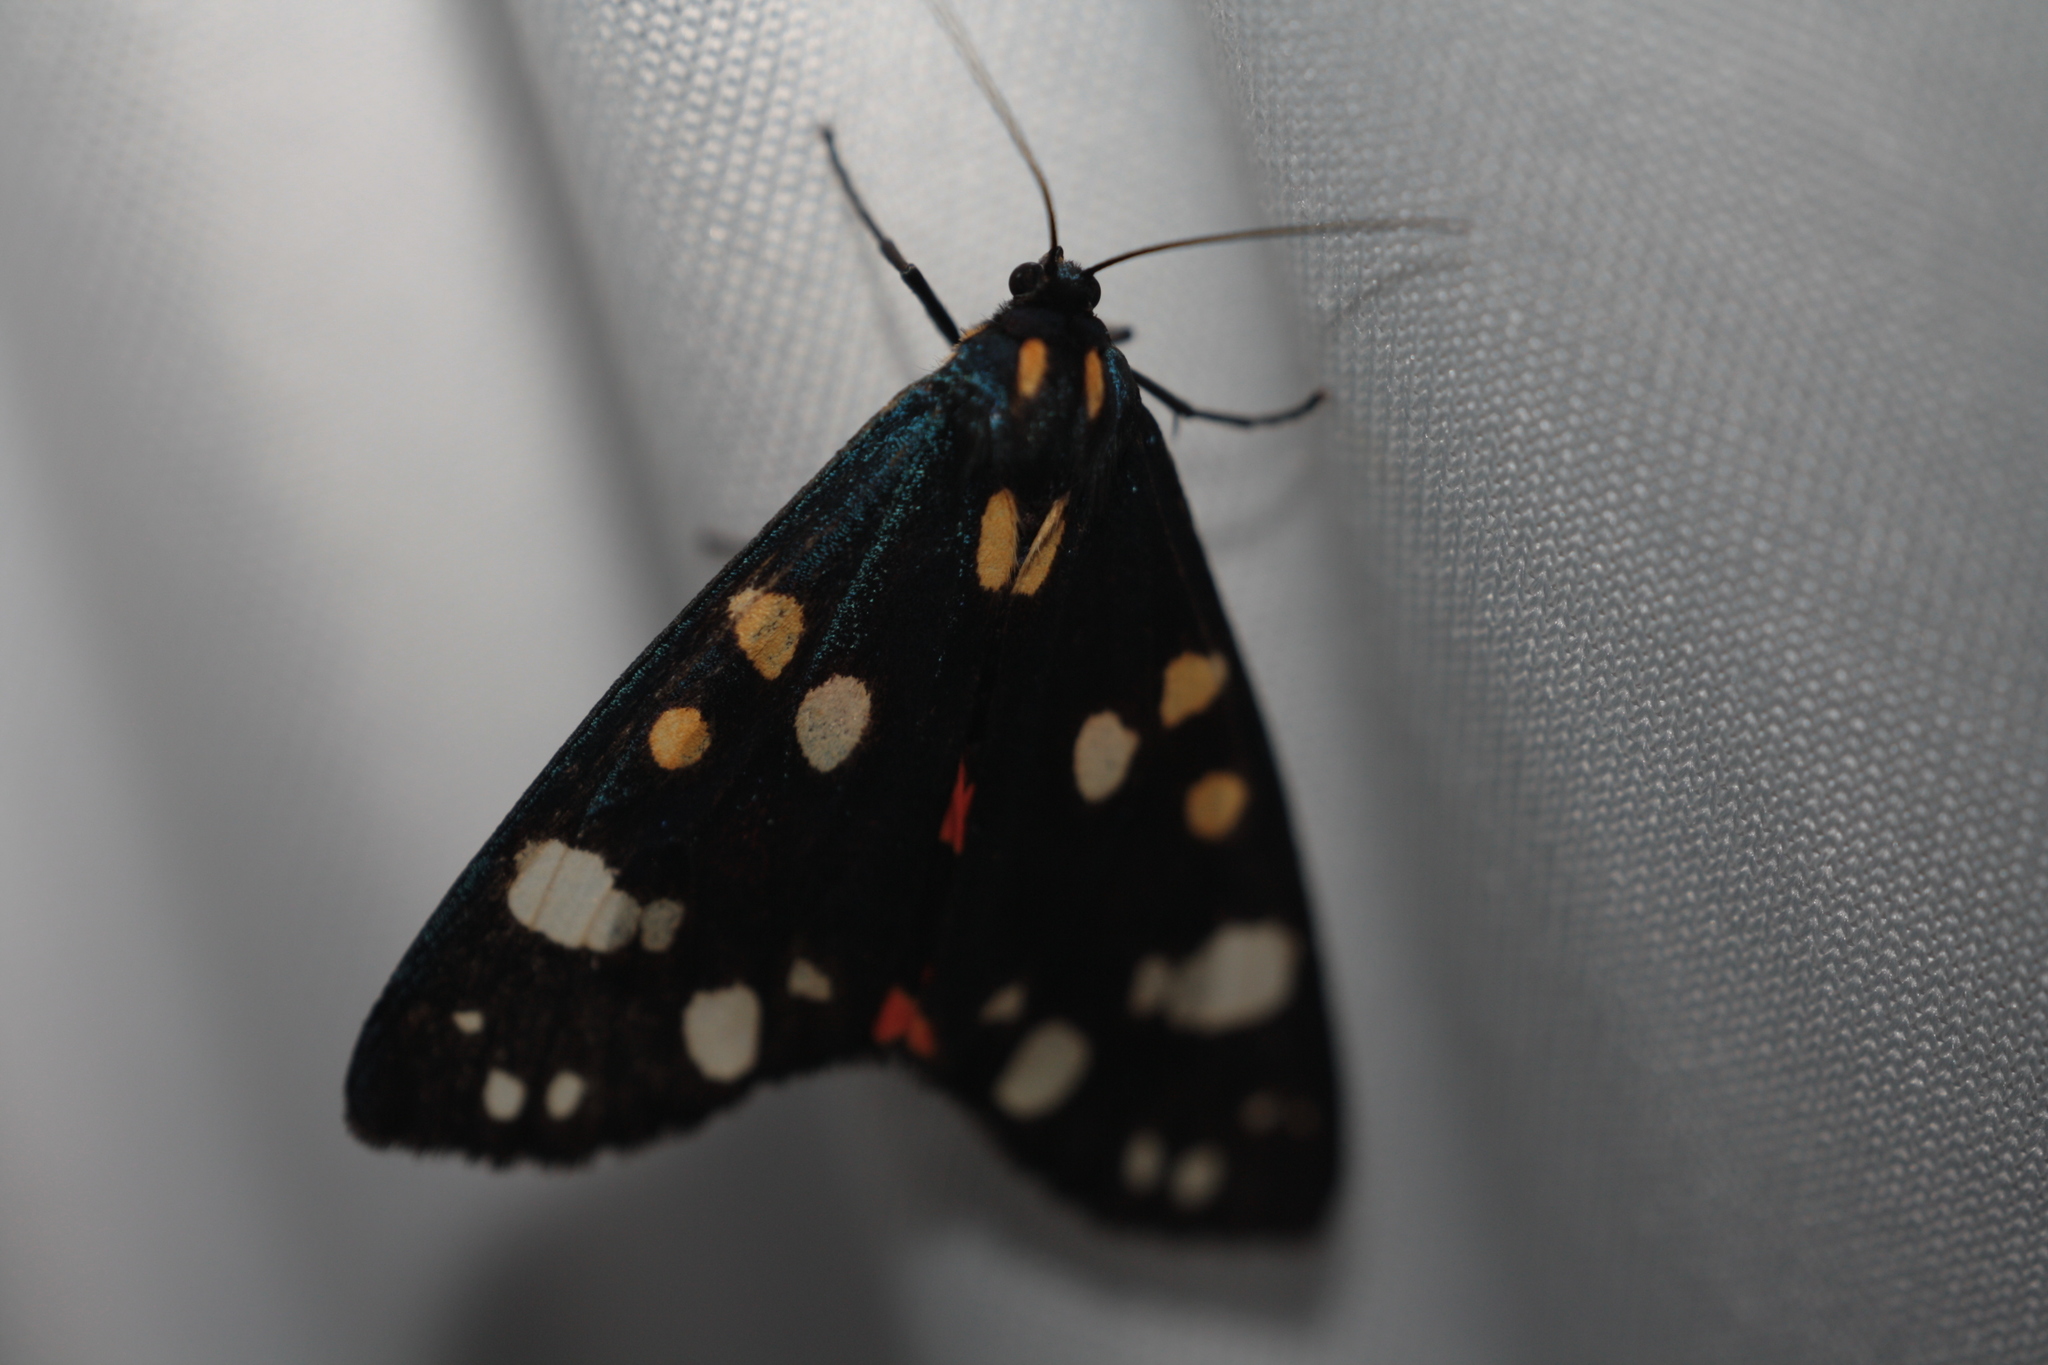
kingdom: Animalia
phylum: Arthropoda
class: Insecta
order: Lepidoptera
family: Erebidae
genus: Callimorpha
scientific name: Callimorpha dominula
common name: Scarlet tiger
